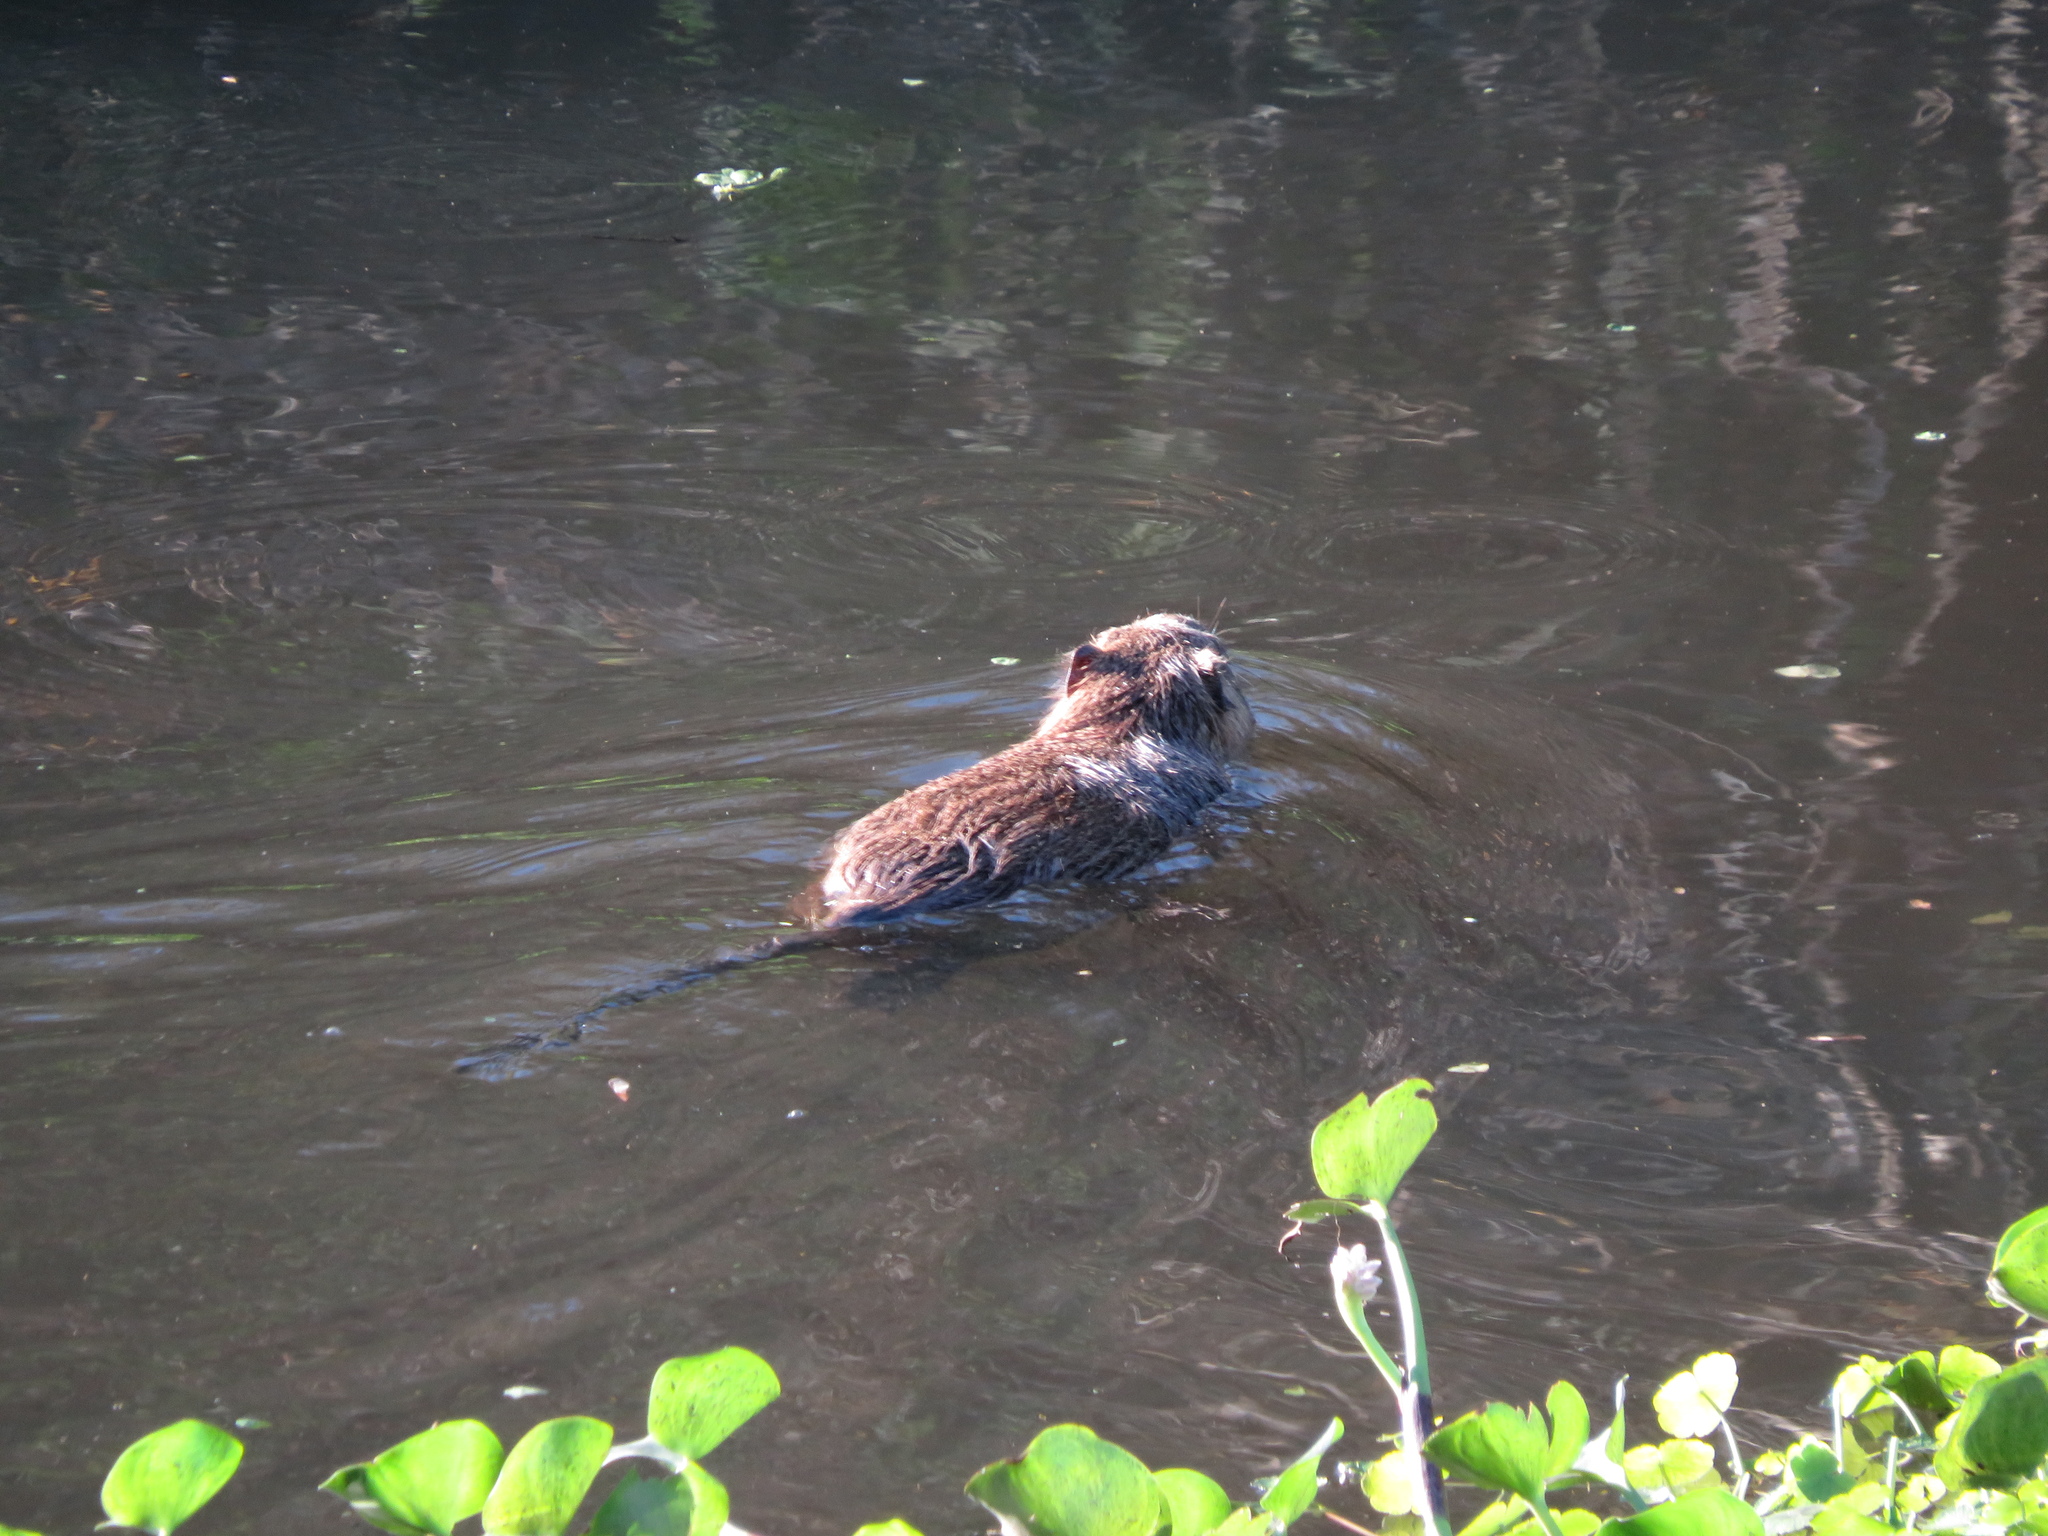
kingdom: Animalia
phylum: Chordata
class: Mammalia
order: Rodentia
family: Myocastoridae
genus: Myocastor
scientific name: Myocastor coypus
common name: Coypu
